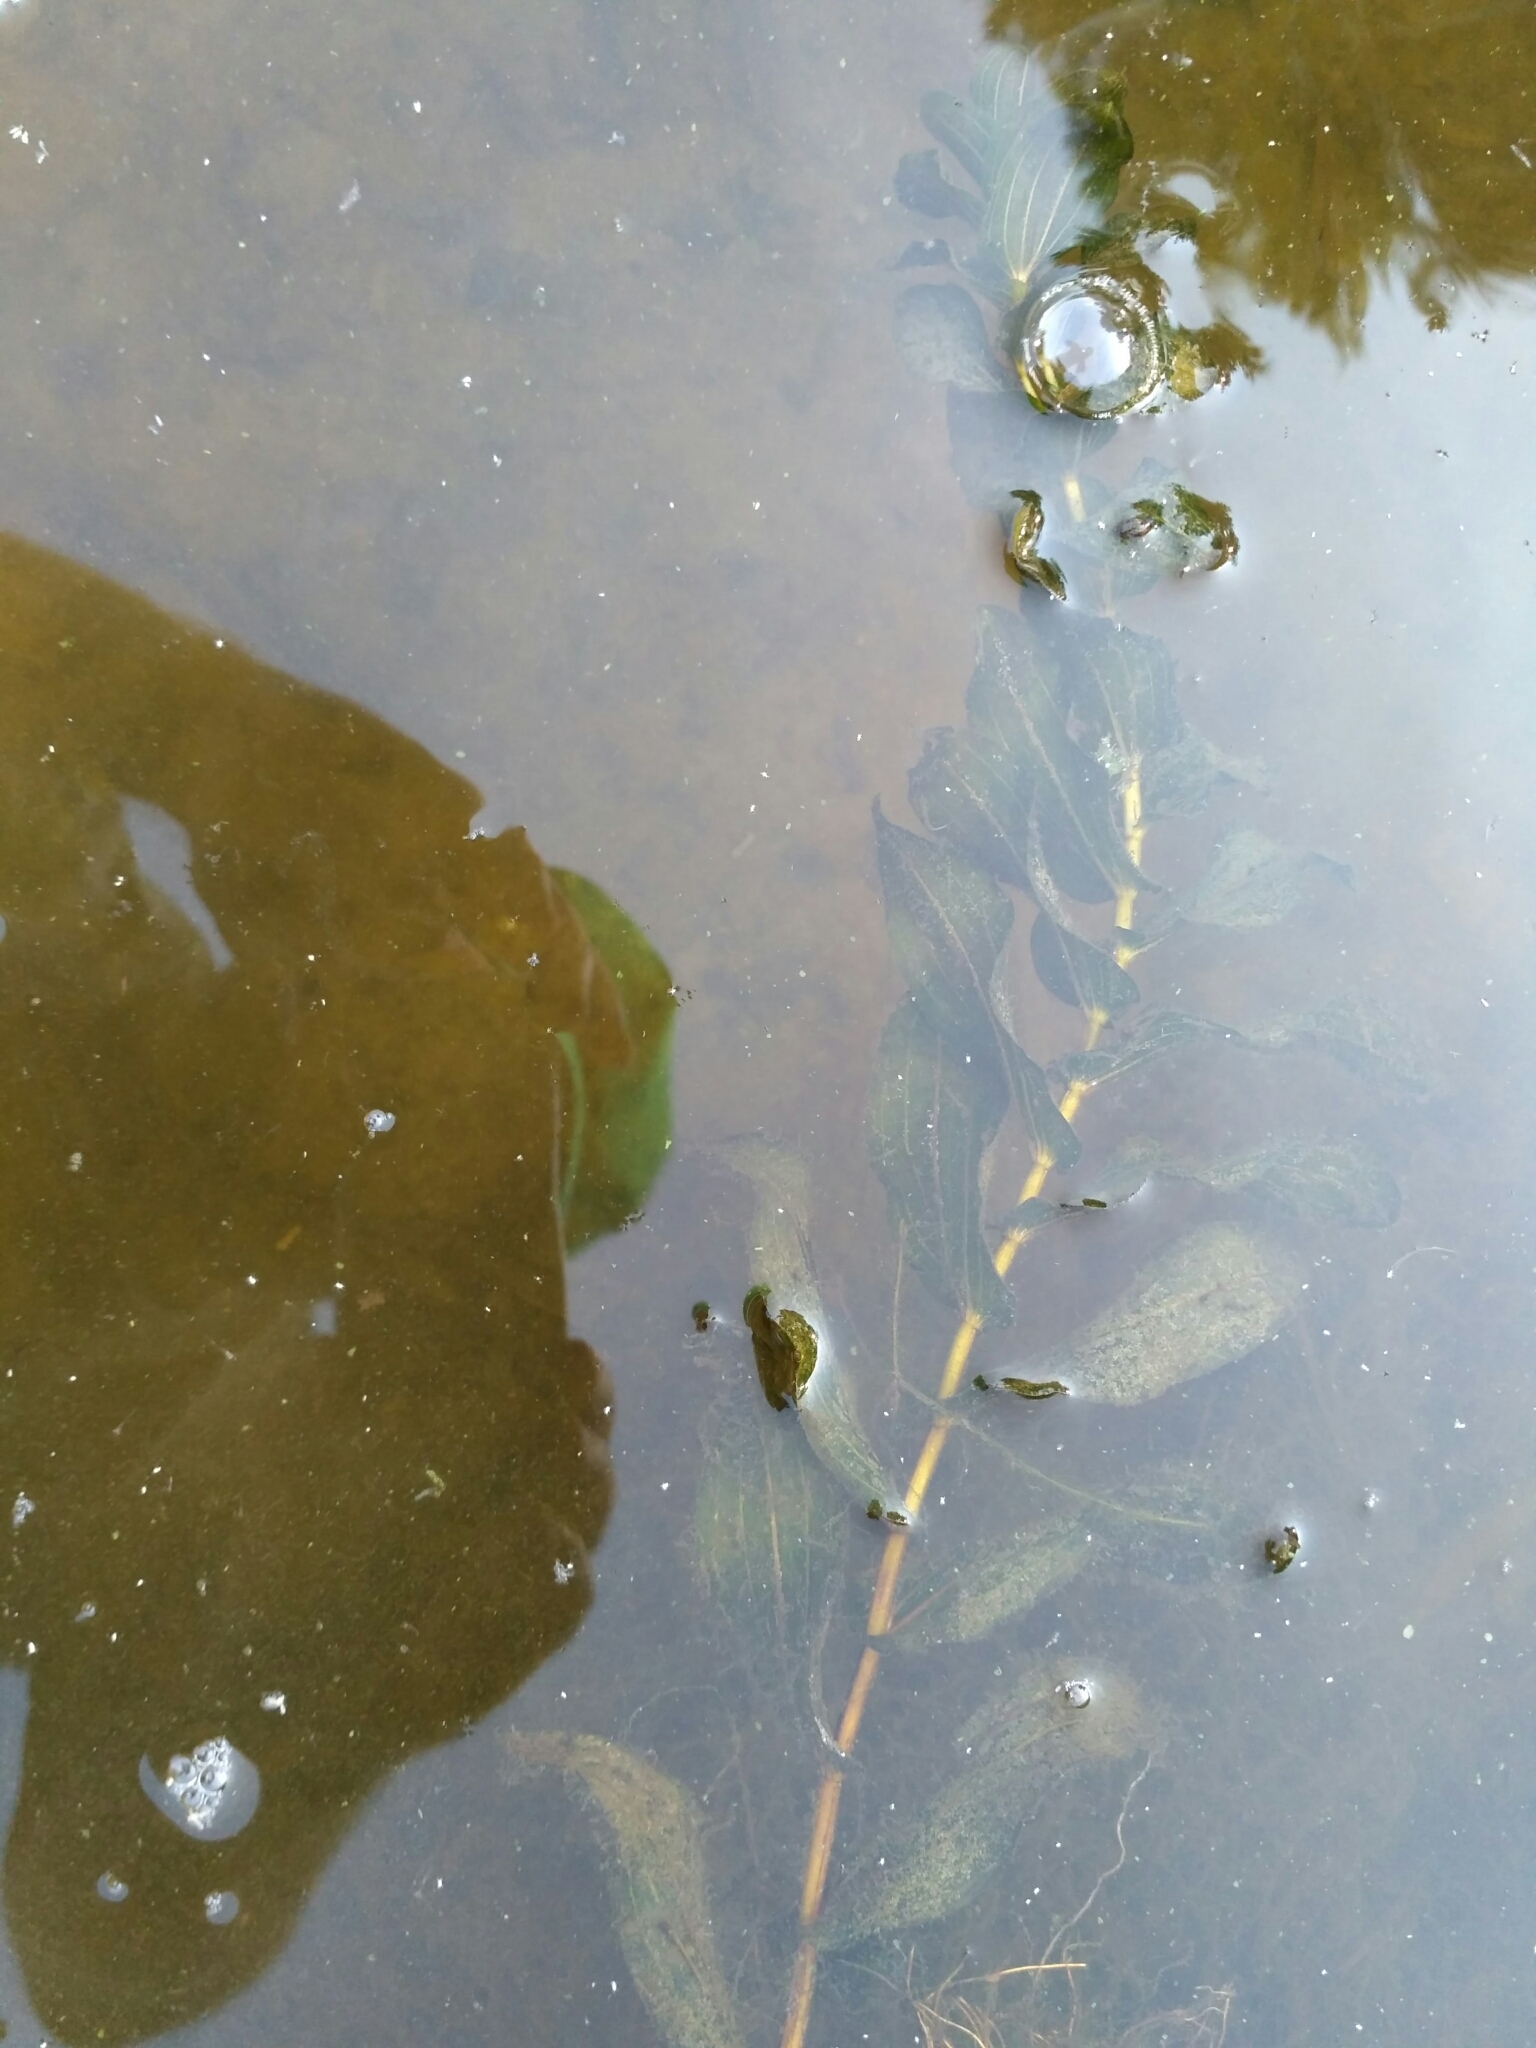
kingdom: Plantae
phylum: Tracheophyta
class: Liliopsida
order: Alismatales
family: Potamogetonaceae
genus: Potamogeton
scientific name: Potamogeton perfoliatus
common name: Perfoliate pondweed
